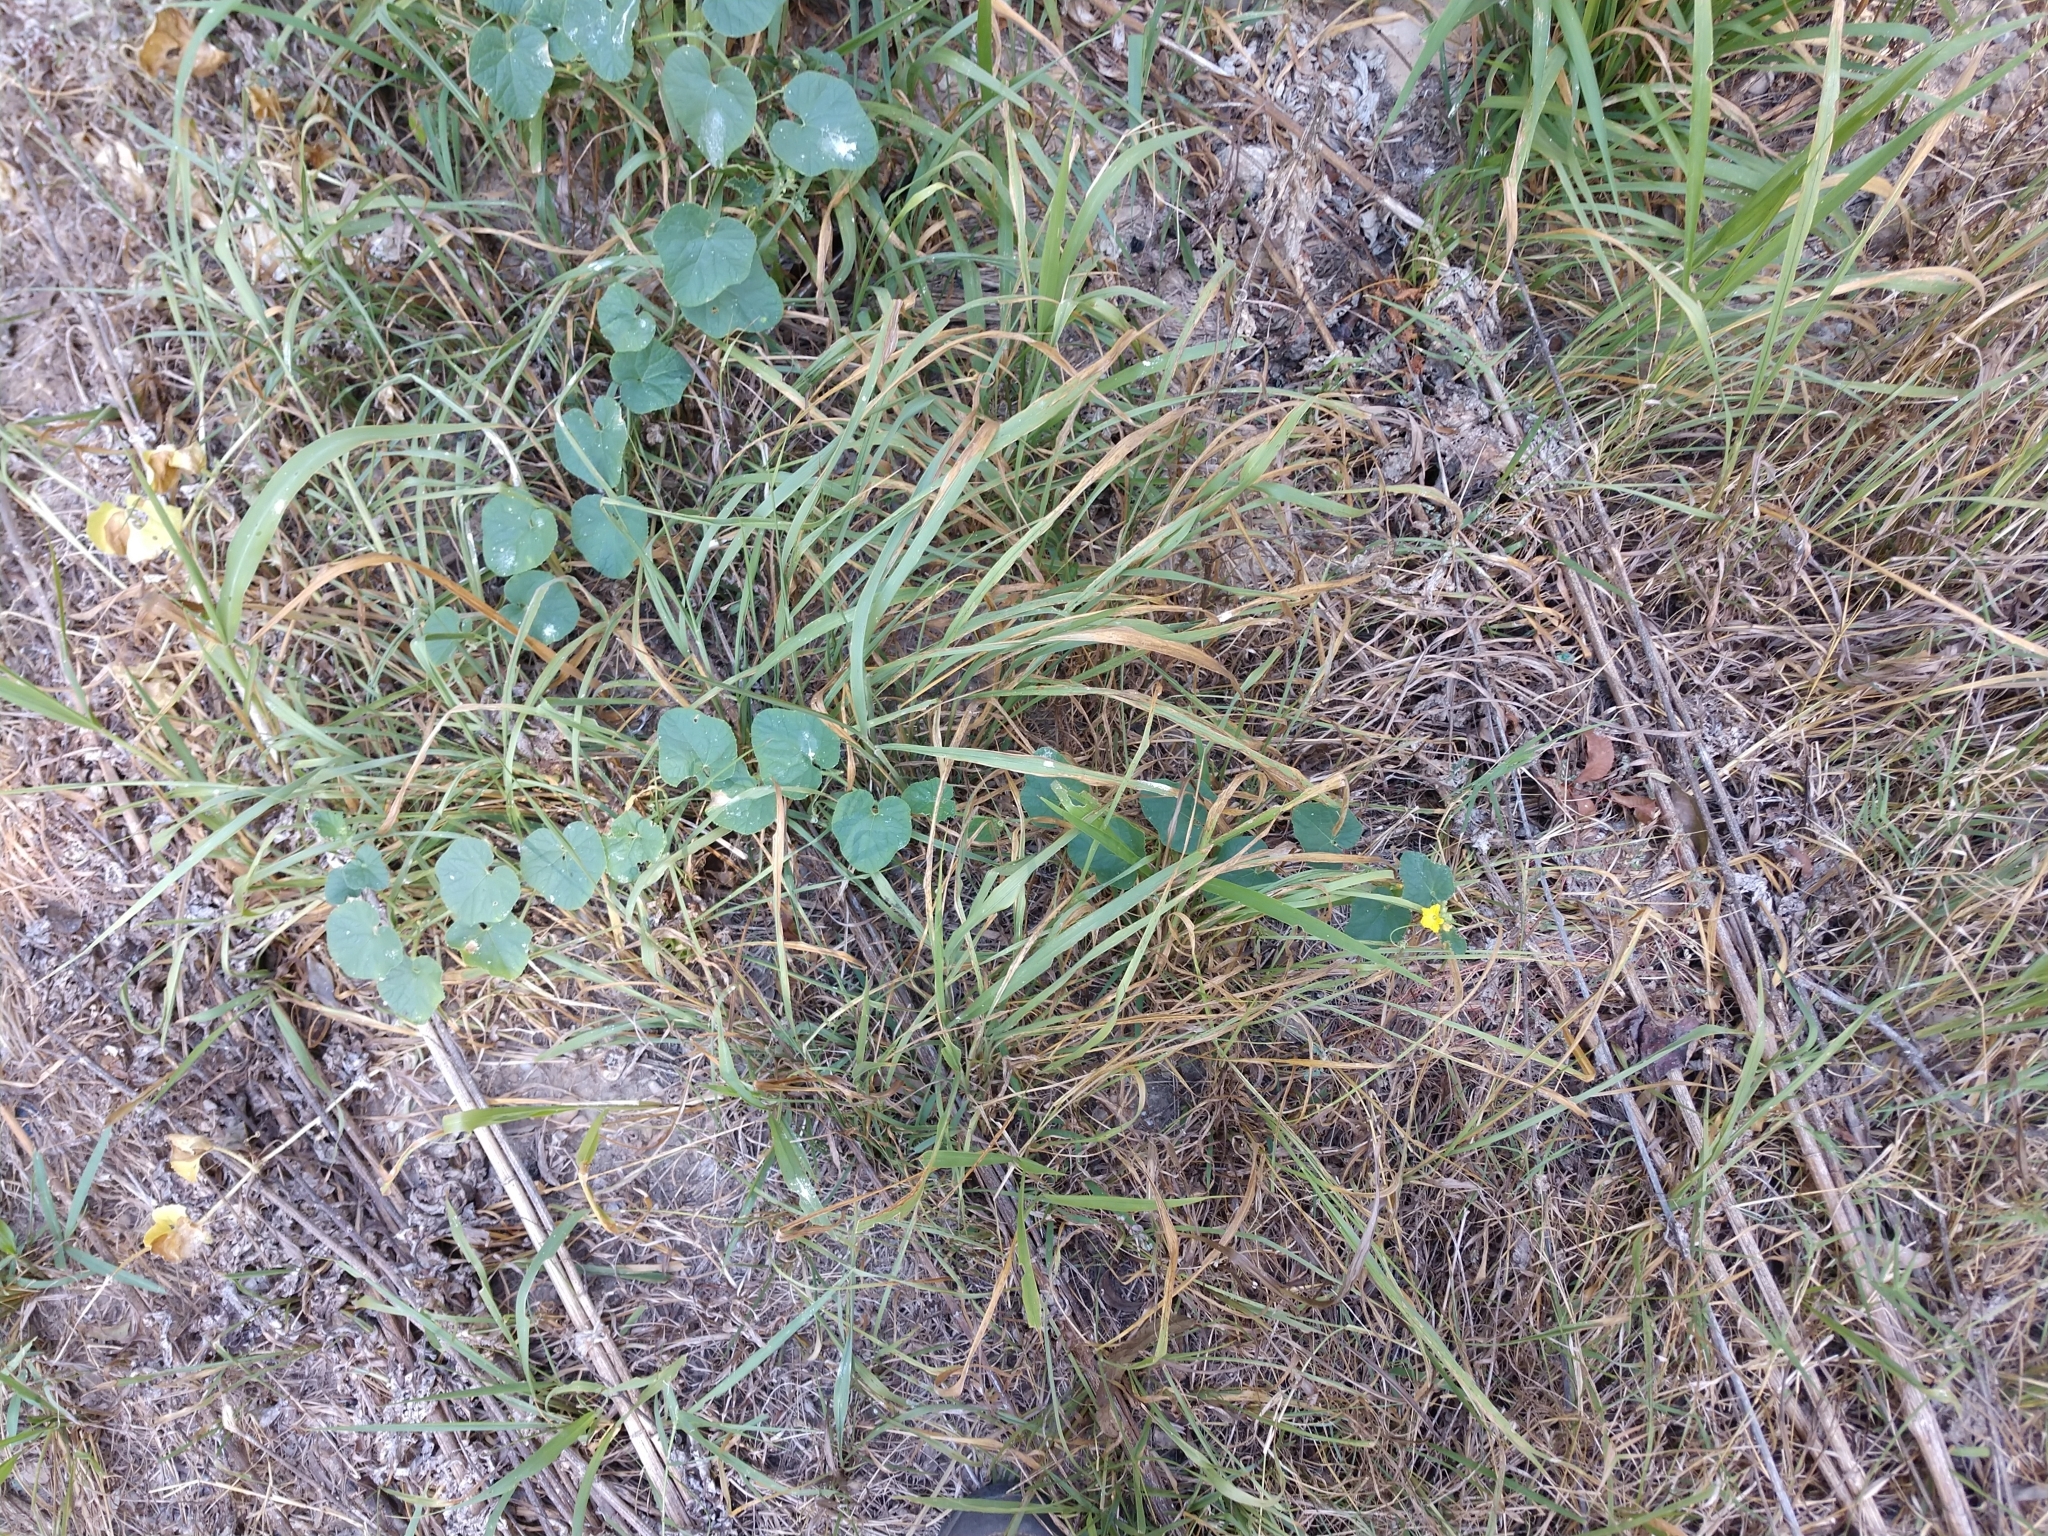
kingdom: Plantae
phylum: Tracheophyta
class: Magnoliopsida
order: Cucurbitales
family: Cucurbitaceae
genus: Cucumis
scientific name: Cucumis melo
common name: Melon
